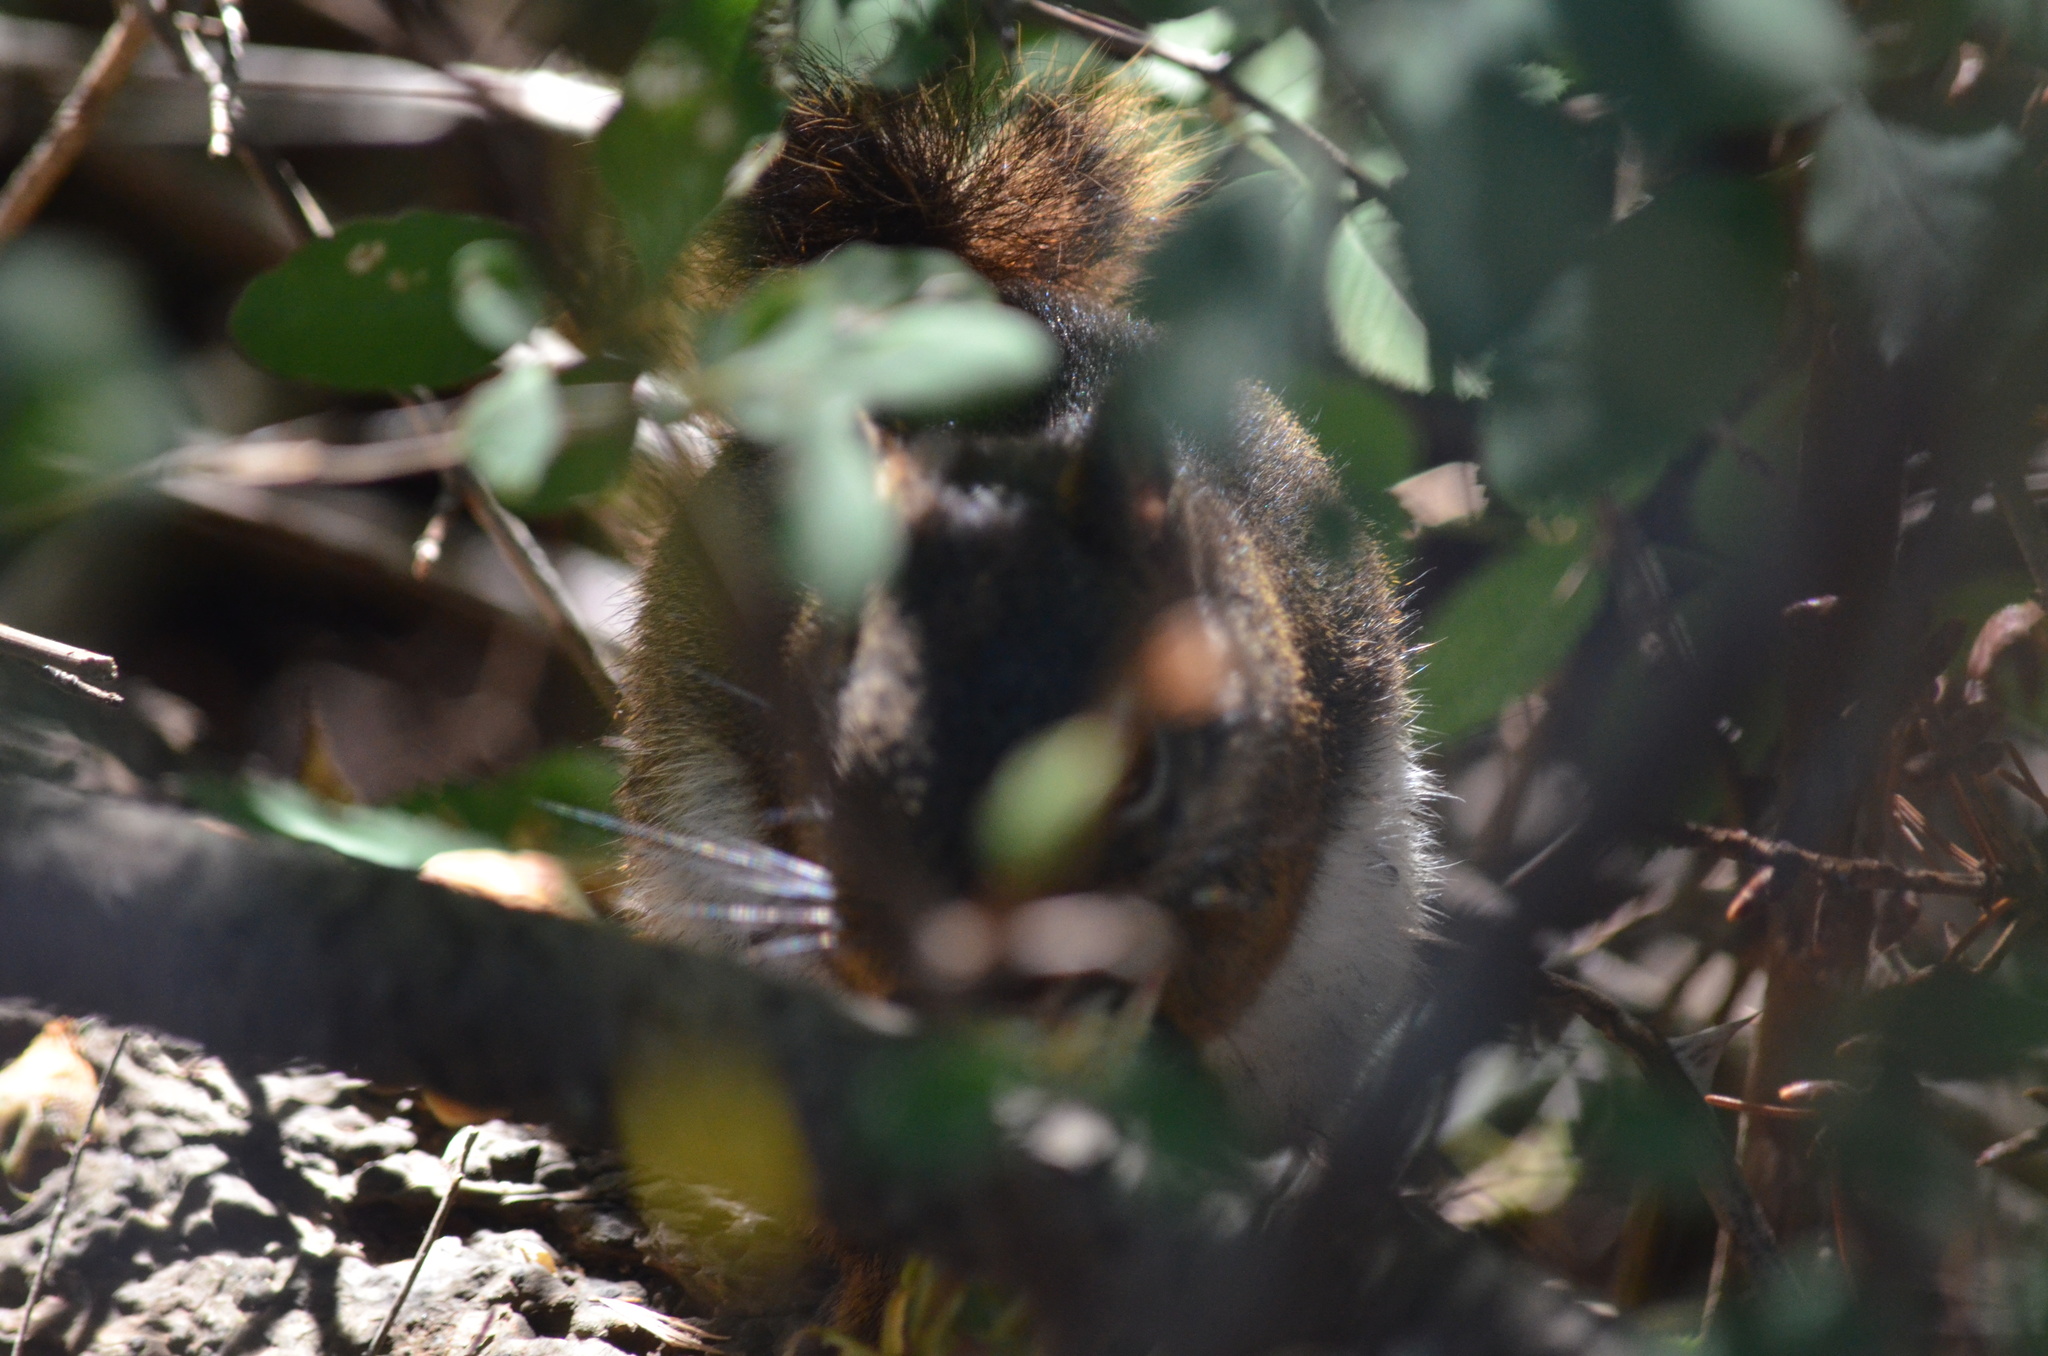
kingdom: Animalia
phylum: Chordata
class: Mammalia
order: Rodentia
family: Sciuridae
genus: Tamiasciurus
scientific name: Tamiasciurus hudsonicus
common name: Red squirrel
